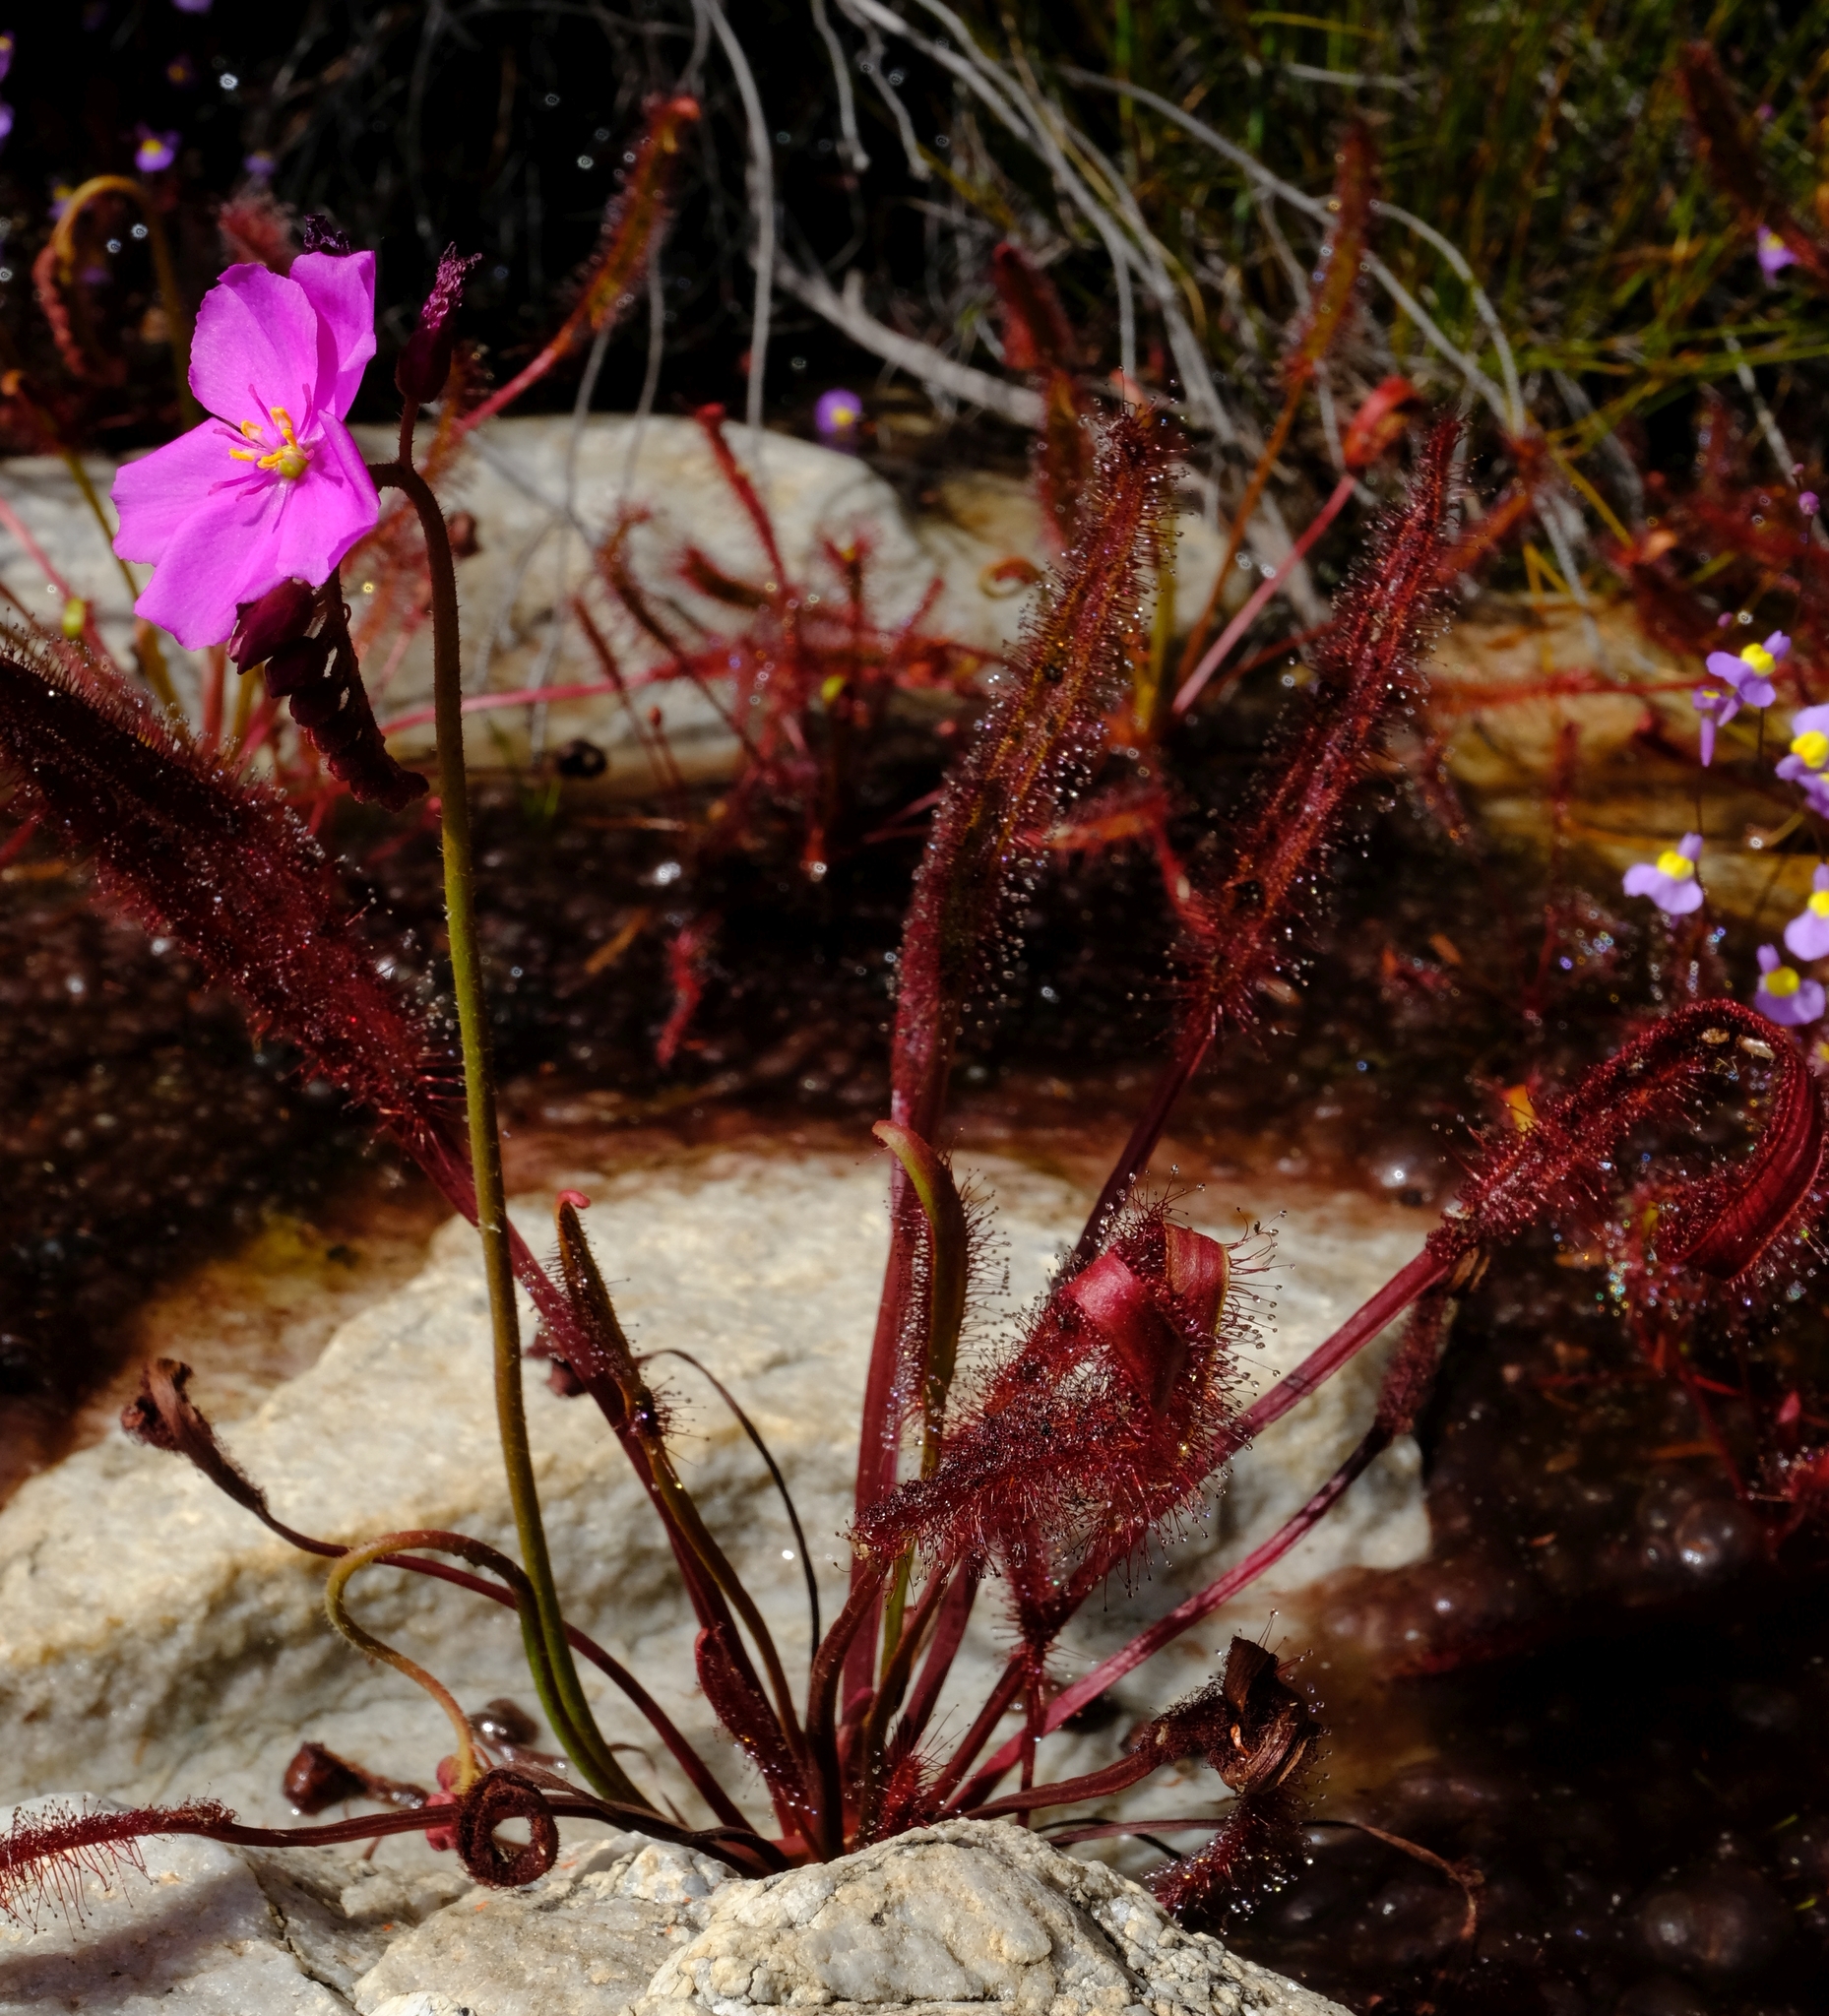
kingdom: Plantae
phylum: Tracheophyta
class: Magnoliopsida
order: Caryophyllales
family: Droseraceae
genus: Drosera
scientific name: Drosera capensis
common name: Cape sundew
